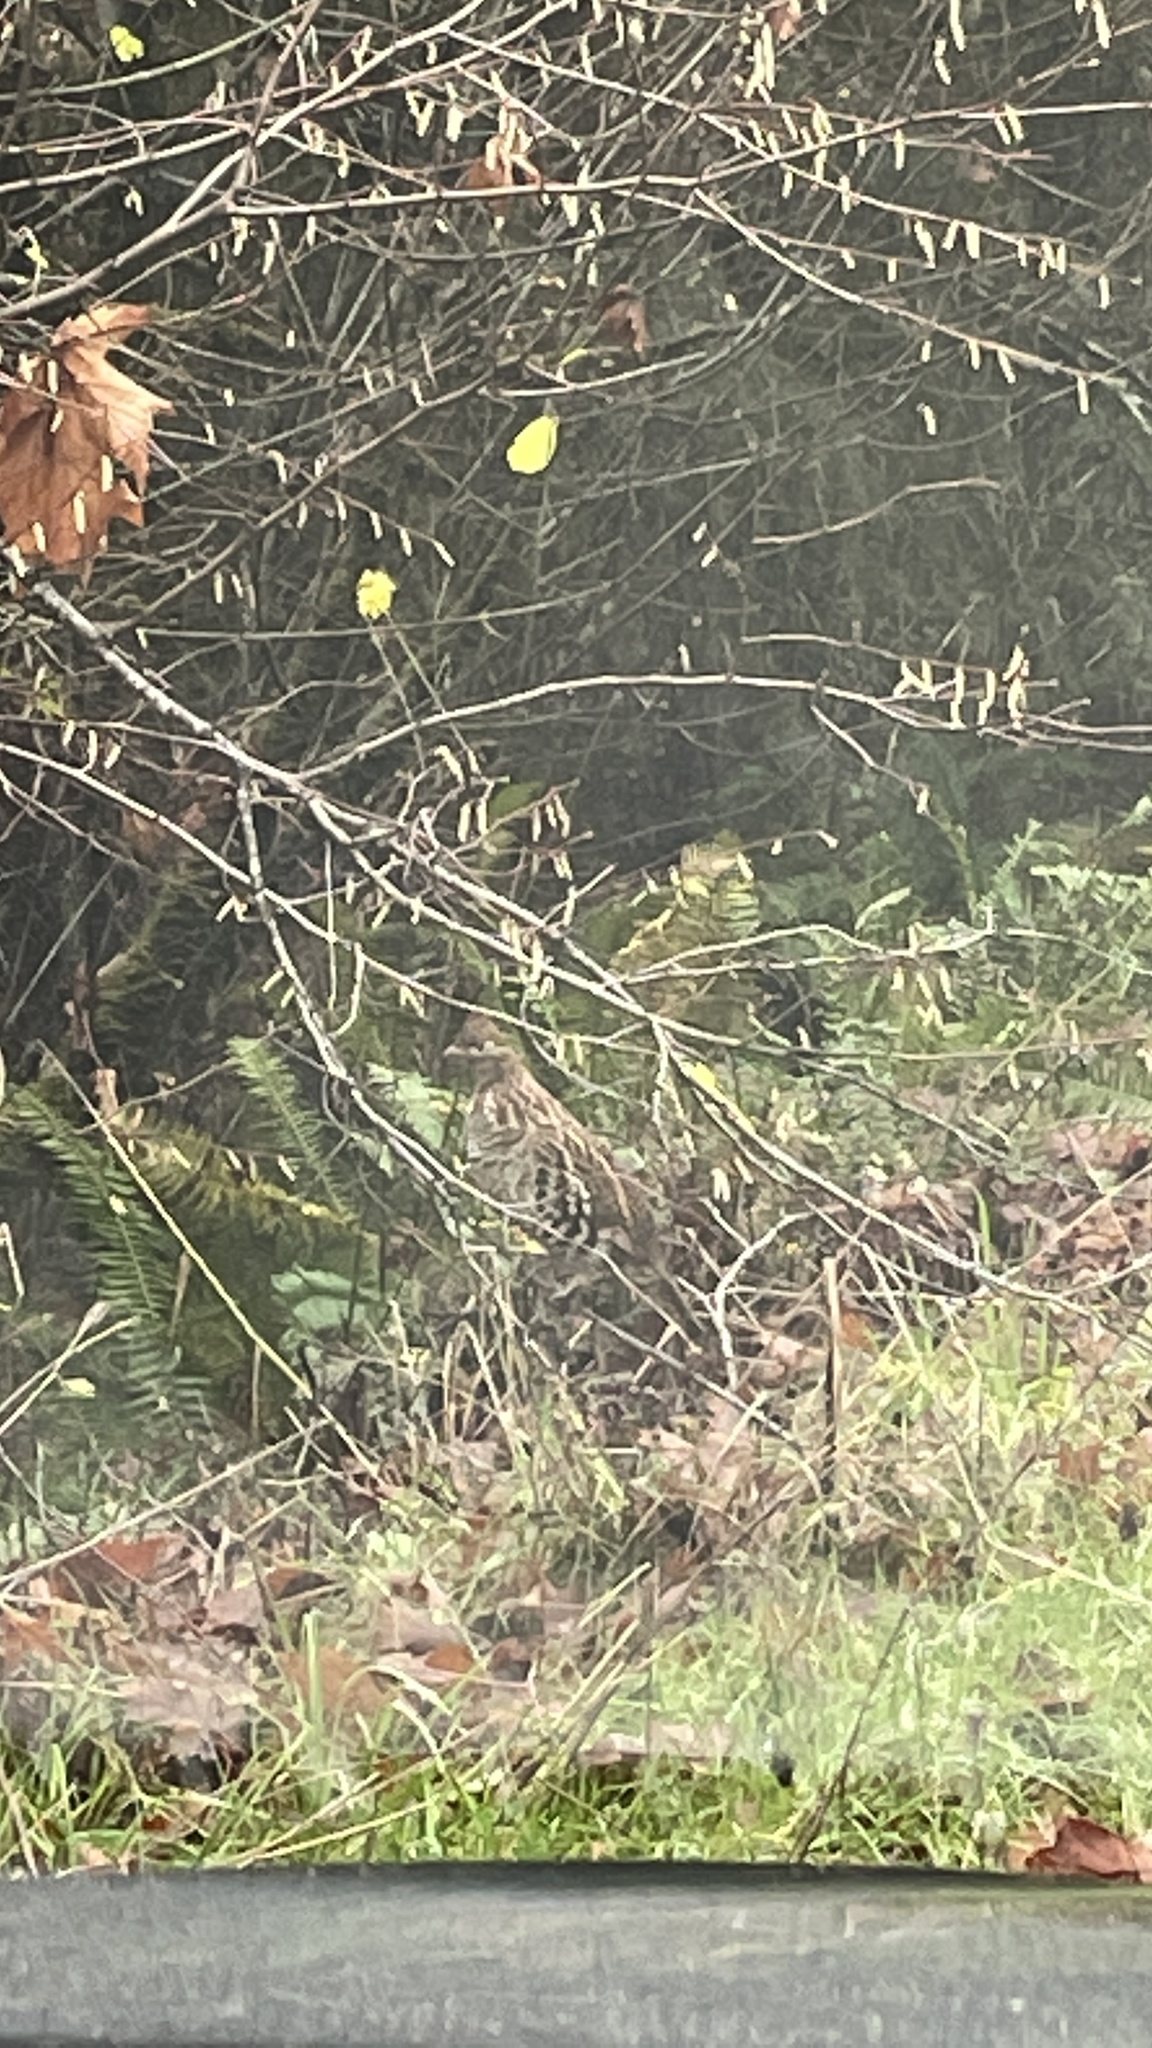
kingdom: Animalia
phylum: Chordata
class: Aves
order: Galliformes
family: Phasianidae
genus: Bonasa
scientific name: Bonasa umbellus
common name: Ruffed grouse
